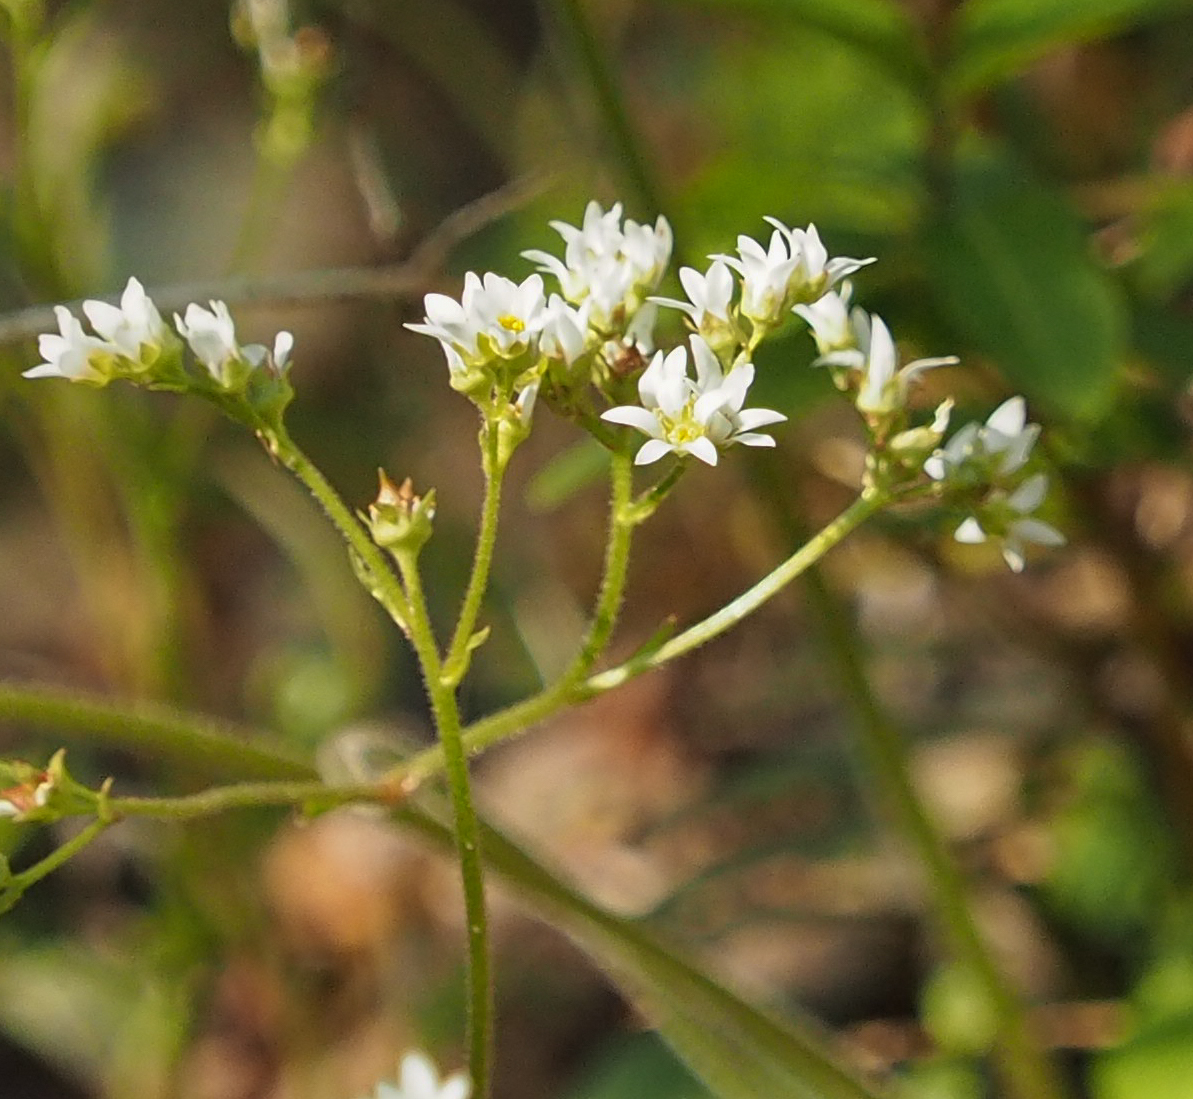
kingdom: Plantae
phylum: Tracheophyta
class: Magnoliopsida
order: Saxifragales
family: Saxifragaceae
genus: Micranthes
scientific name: Micranthes virginiensis
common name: Early saxifrage
